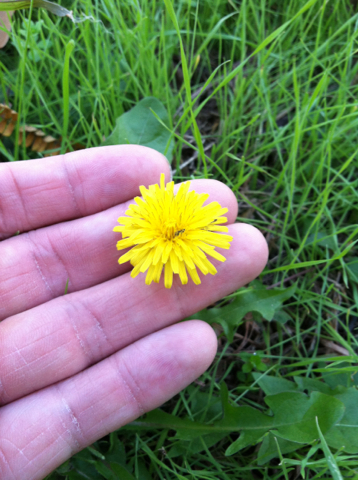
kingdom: Plantae
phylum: Tracheophyta
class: Magnoliopsida
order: Asterales
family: Asteraceae
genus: Taraxacum
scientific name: Taraxacum officinale
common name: Common dandelion
